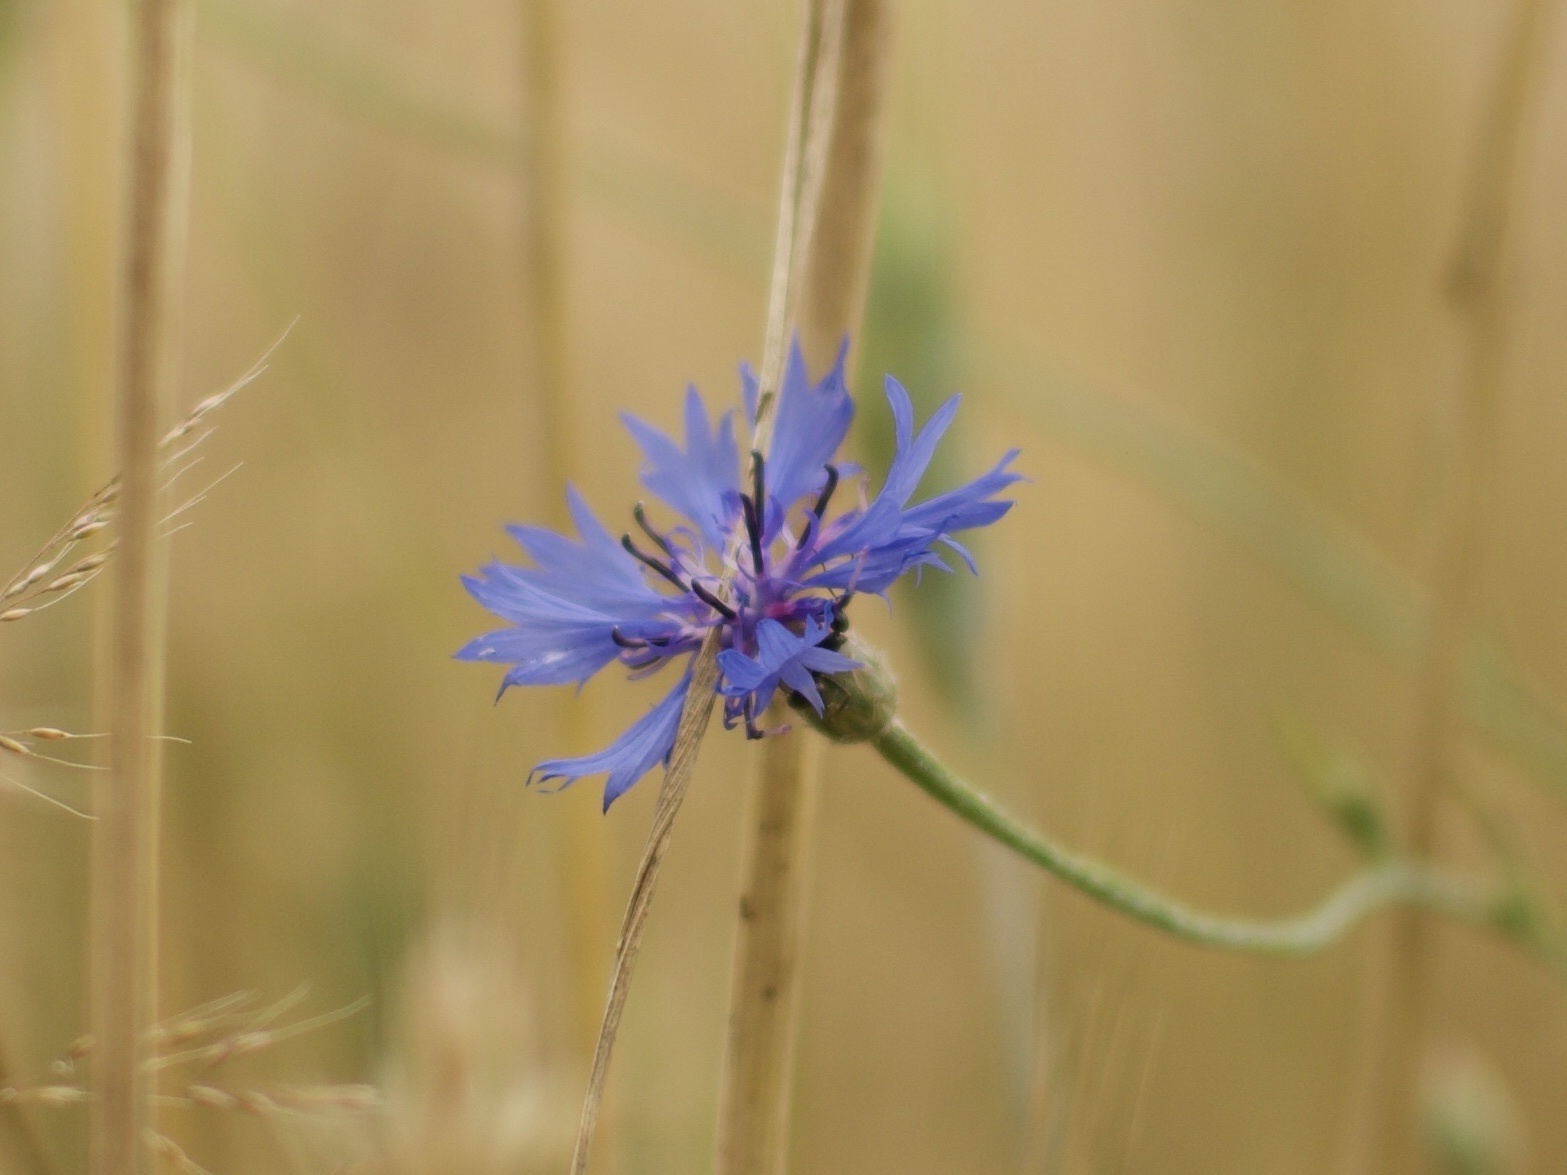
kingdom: Plantae
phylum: Tracheophyta
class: Magnoliopsida
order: Asterales
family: Asteraceae
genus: Centaurea
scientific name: Centaurea cyanus
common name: Cornflower
